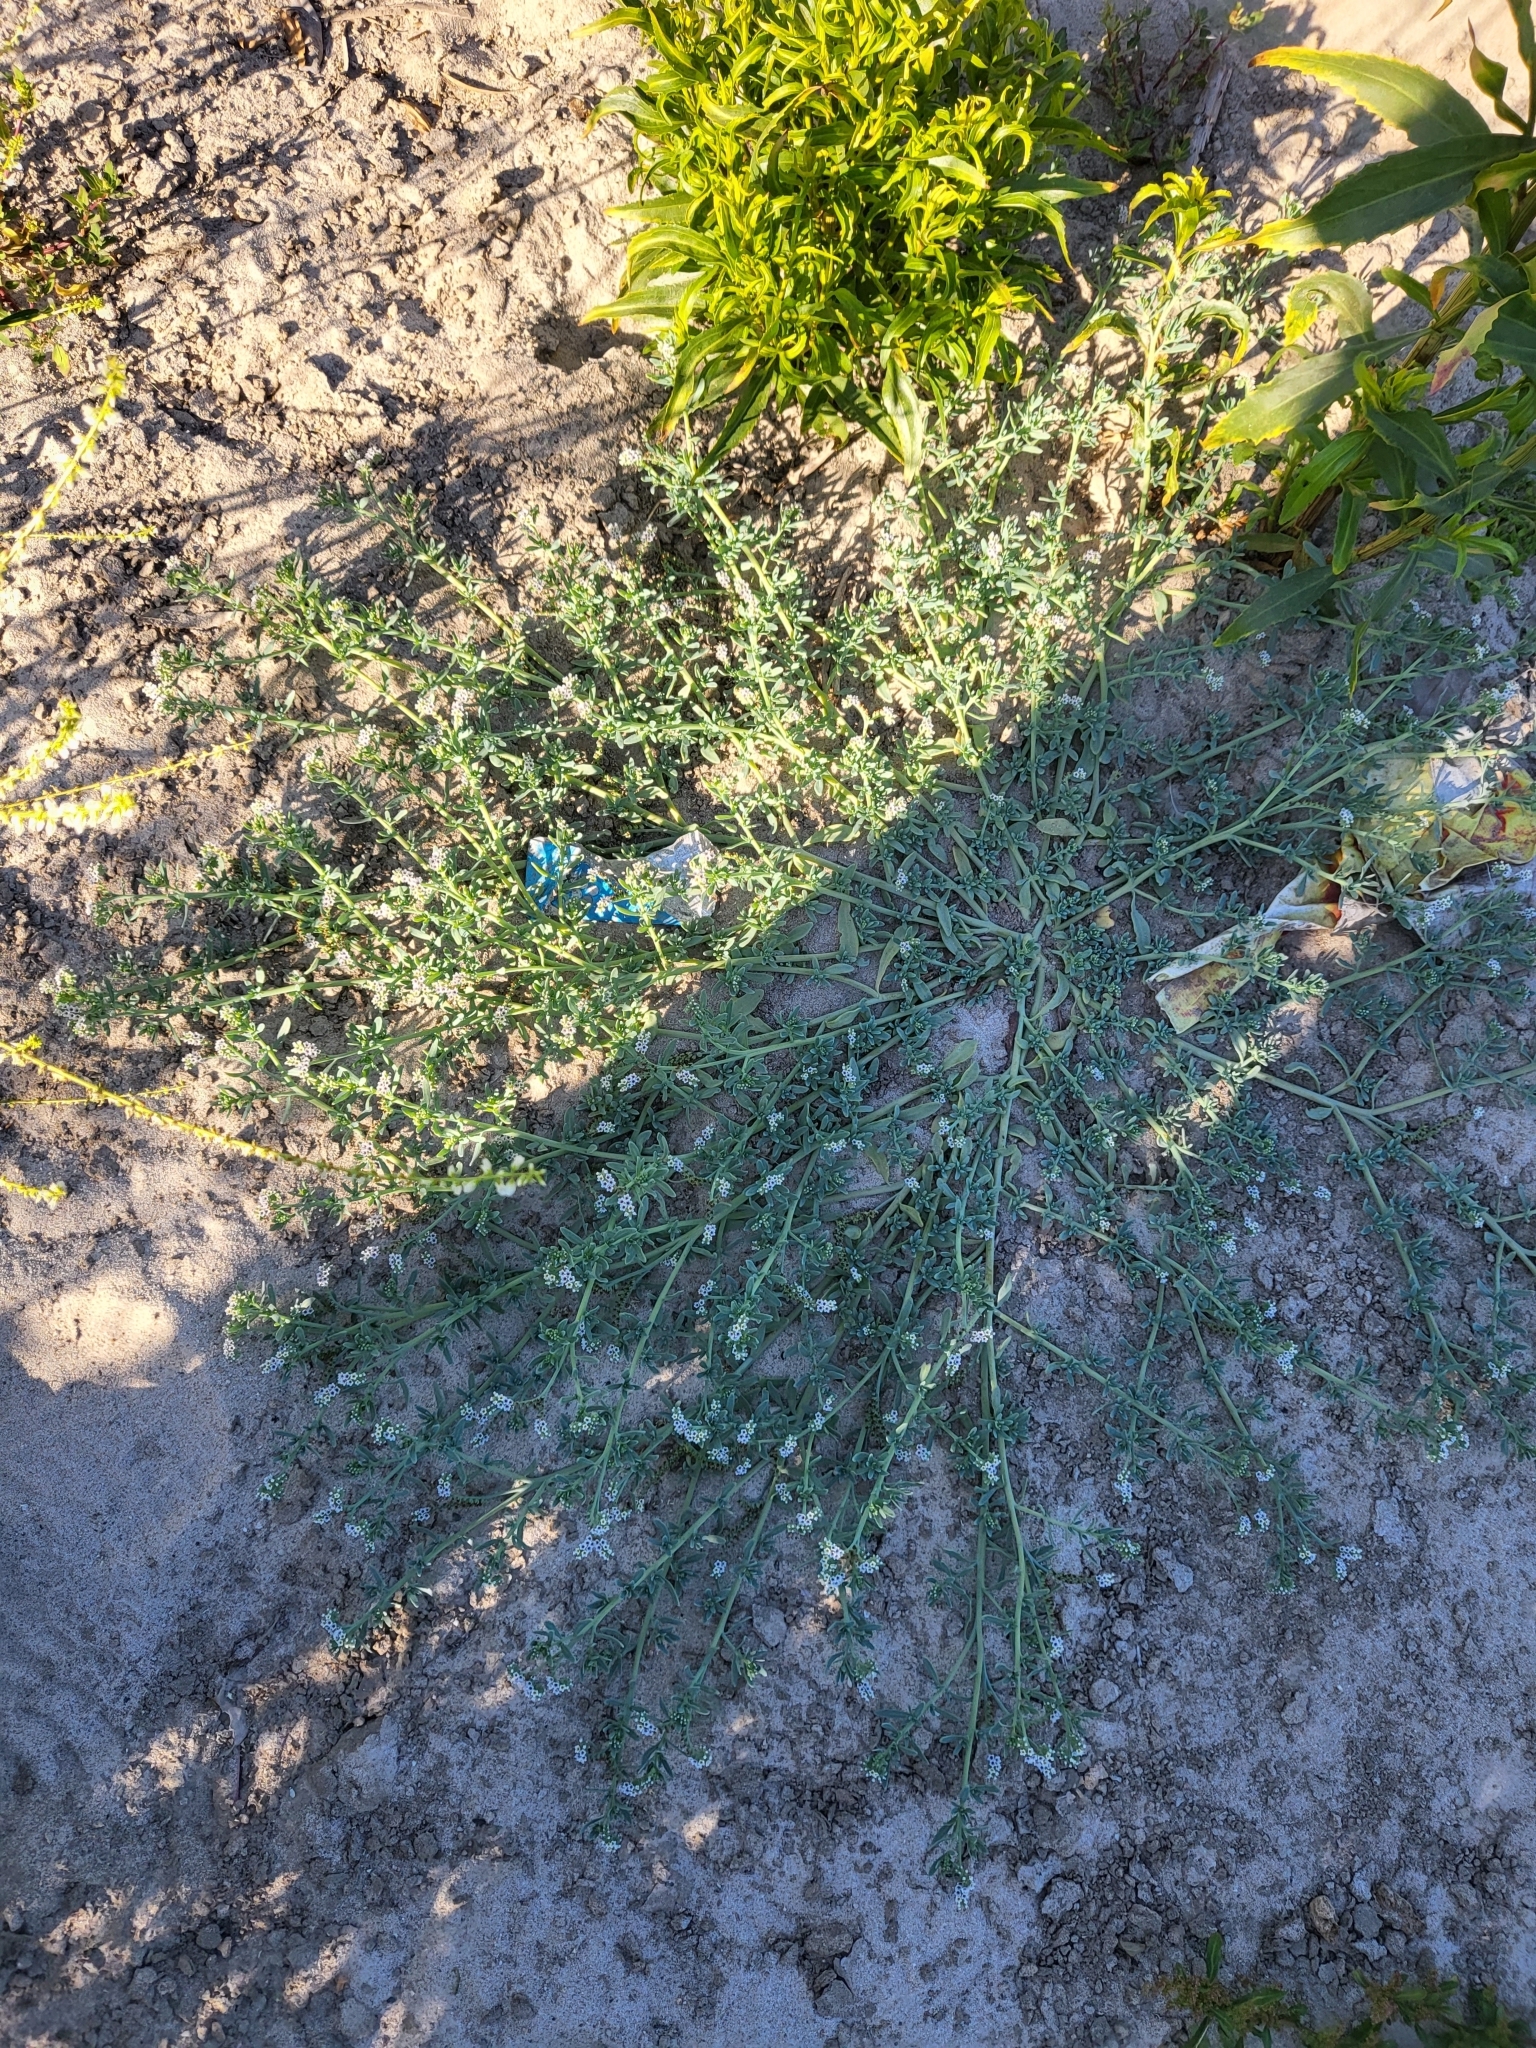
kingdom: Plantae
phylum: Tracheophyta
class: Magnoliopsida
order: Boraginales
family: Heliotropiaceae
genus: Heliotropium
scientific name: Heliotropium curassavicum
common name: Seaside heliotrope
